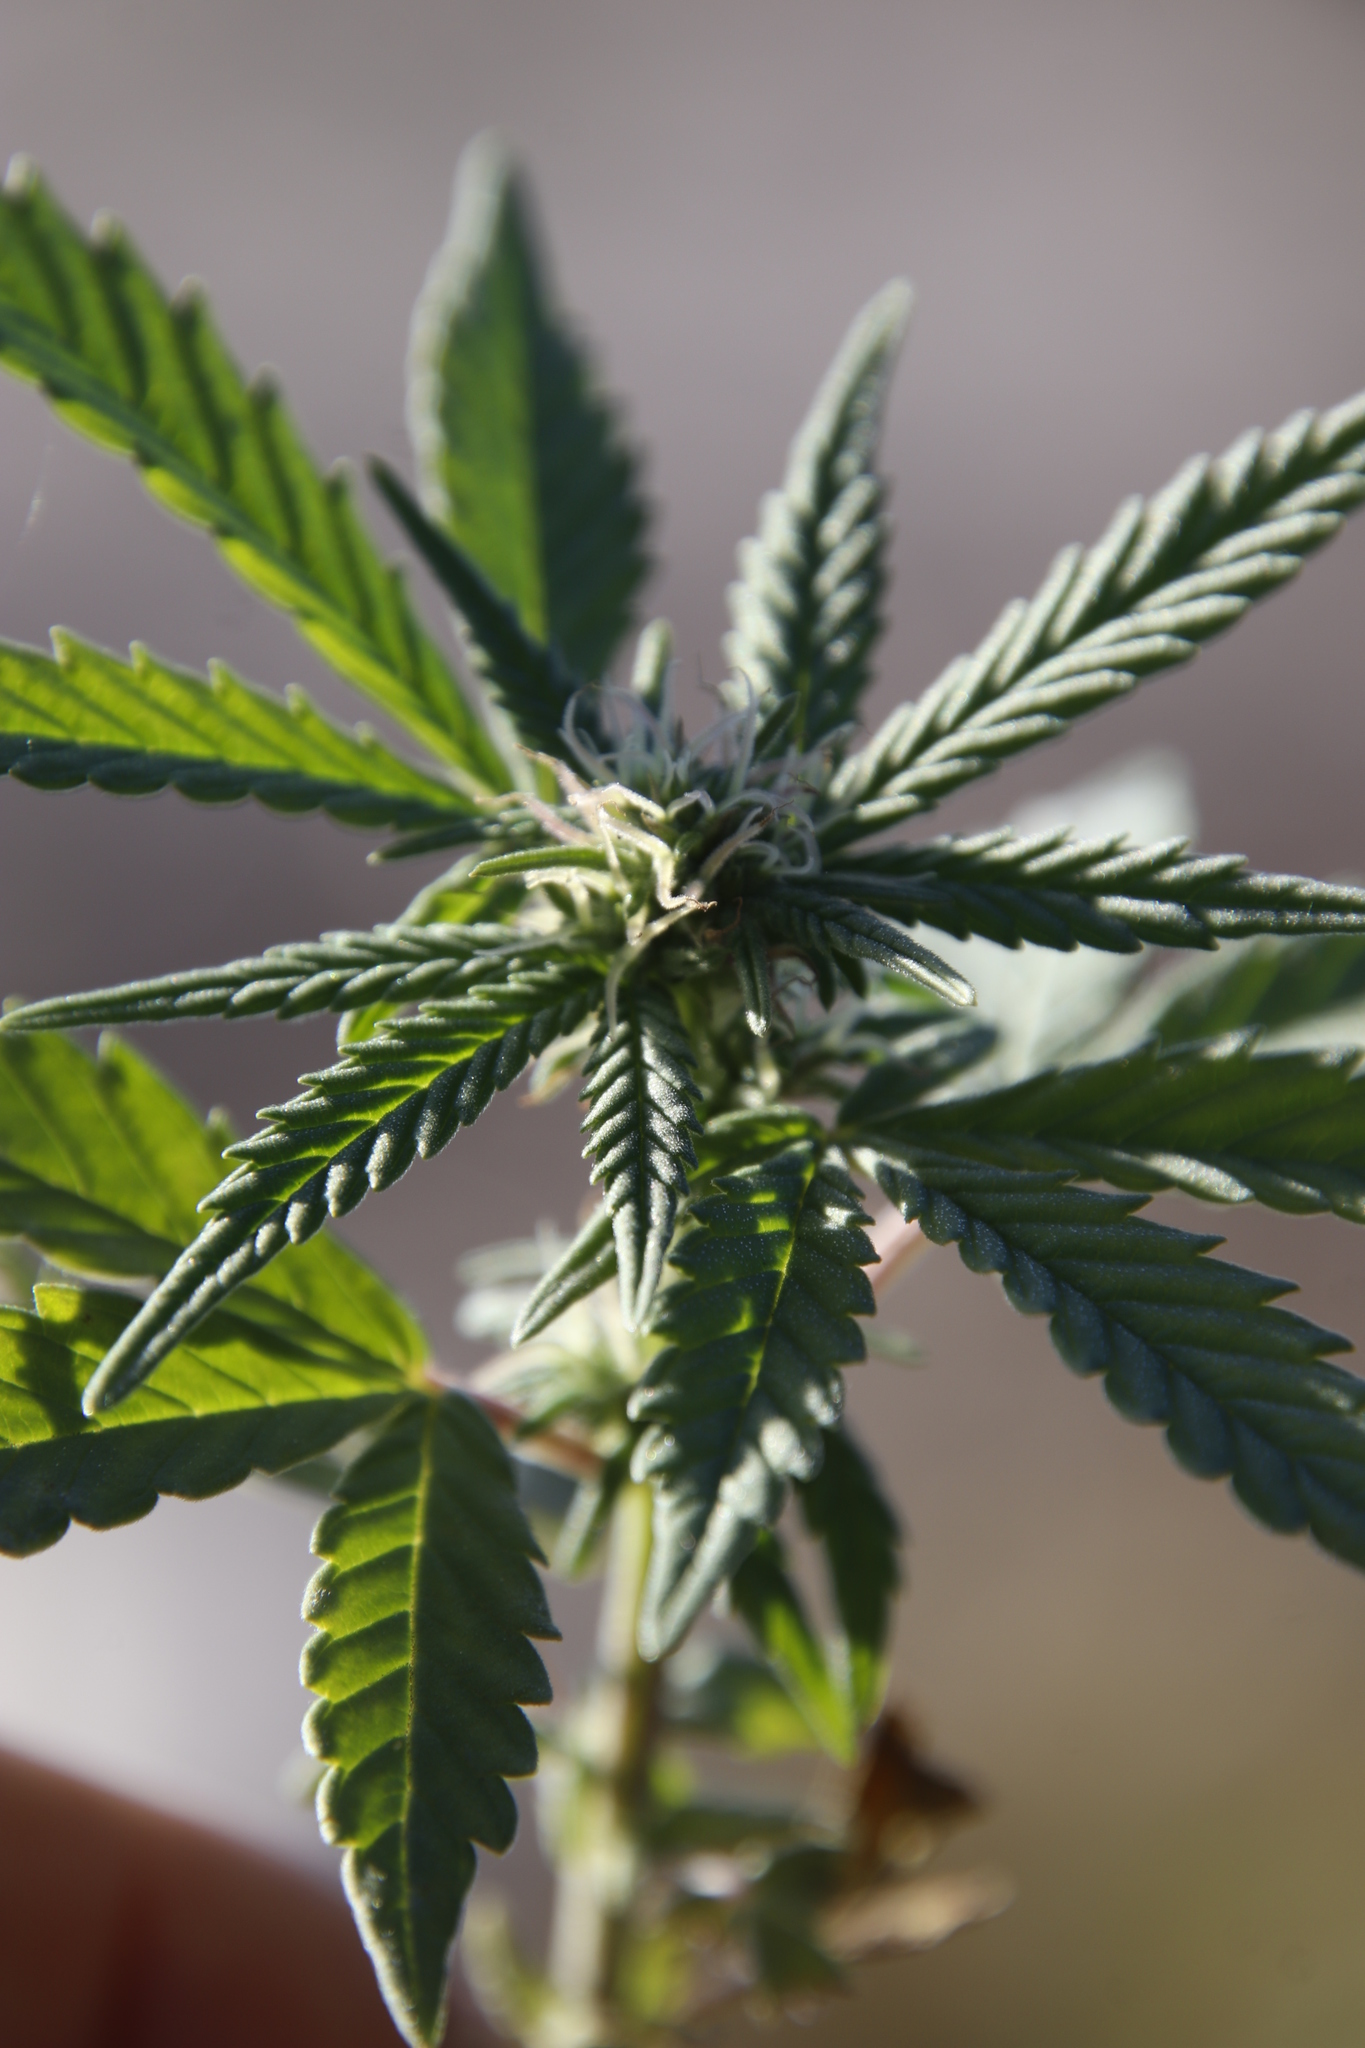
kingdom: Plantae
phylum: Tracheophyta
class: Magnoliopsida
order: Rosales
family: Cannabaceae
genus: Cannabis
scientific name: Cannabis sativa
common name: Hemp
